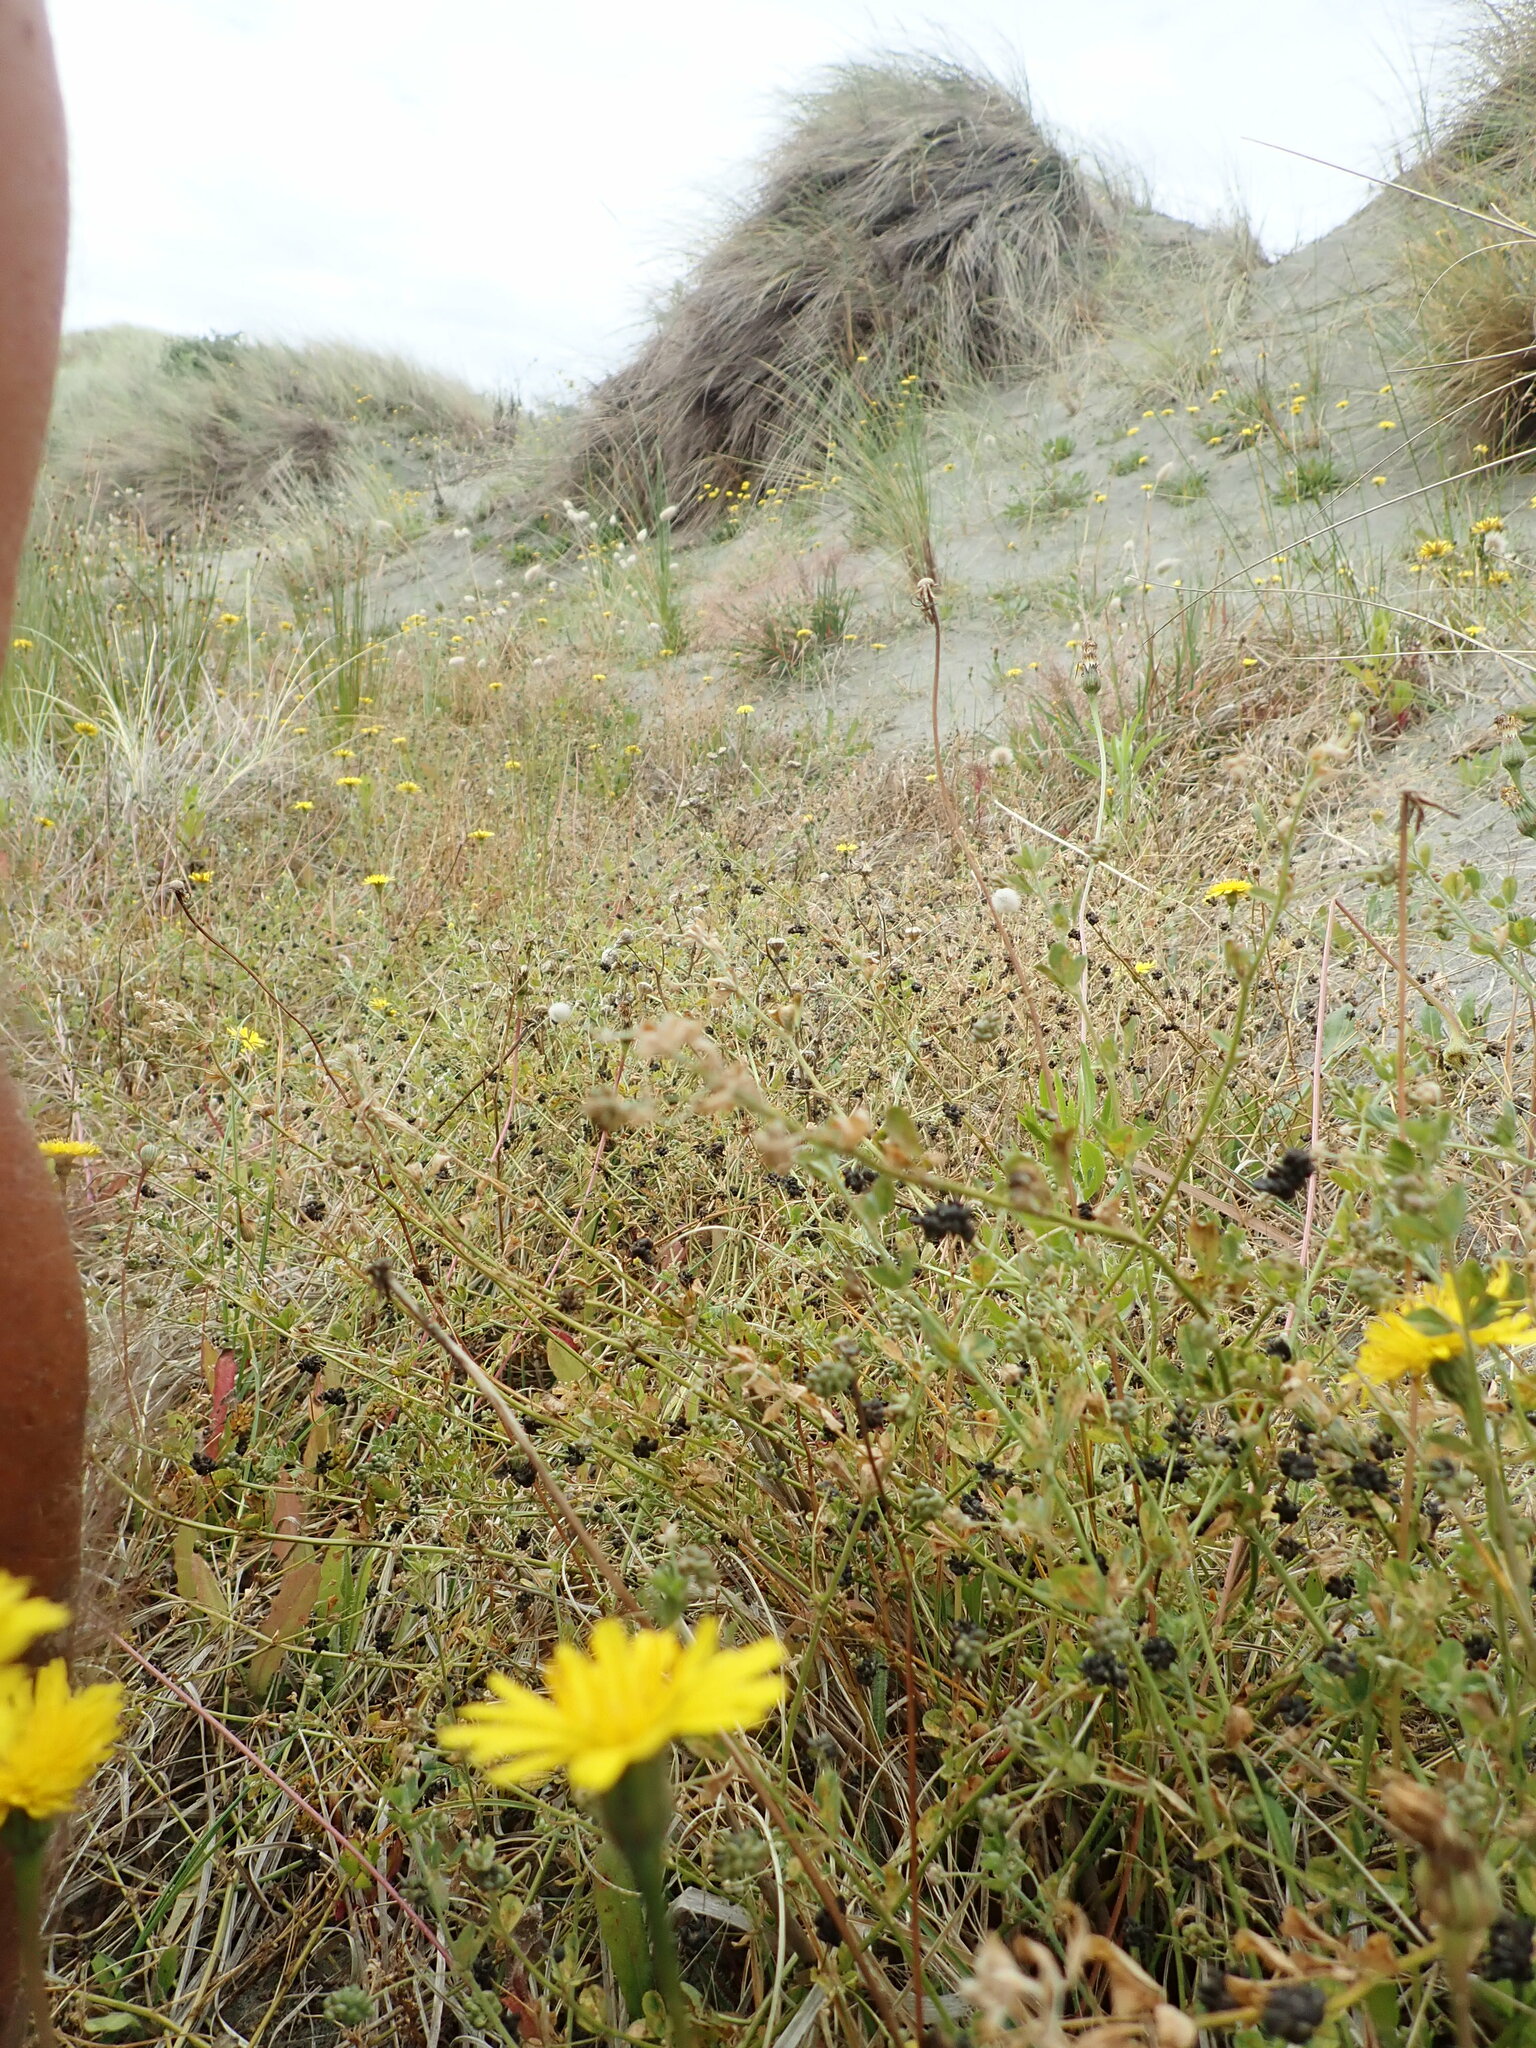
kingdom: Plantae
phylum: Tracheophyta
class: Magnoliopsida
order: Fabales
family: Fabaceae
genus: Medicago
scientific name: Medicago lupulina
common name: Black medick
